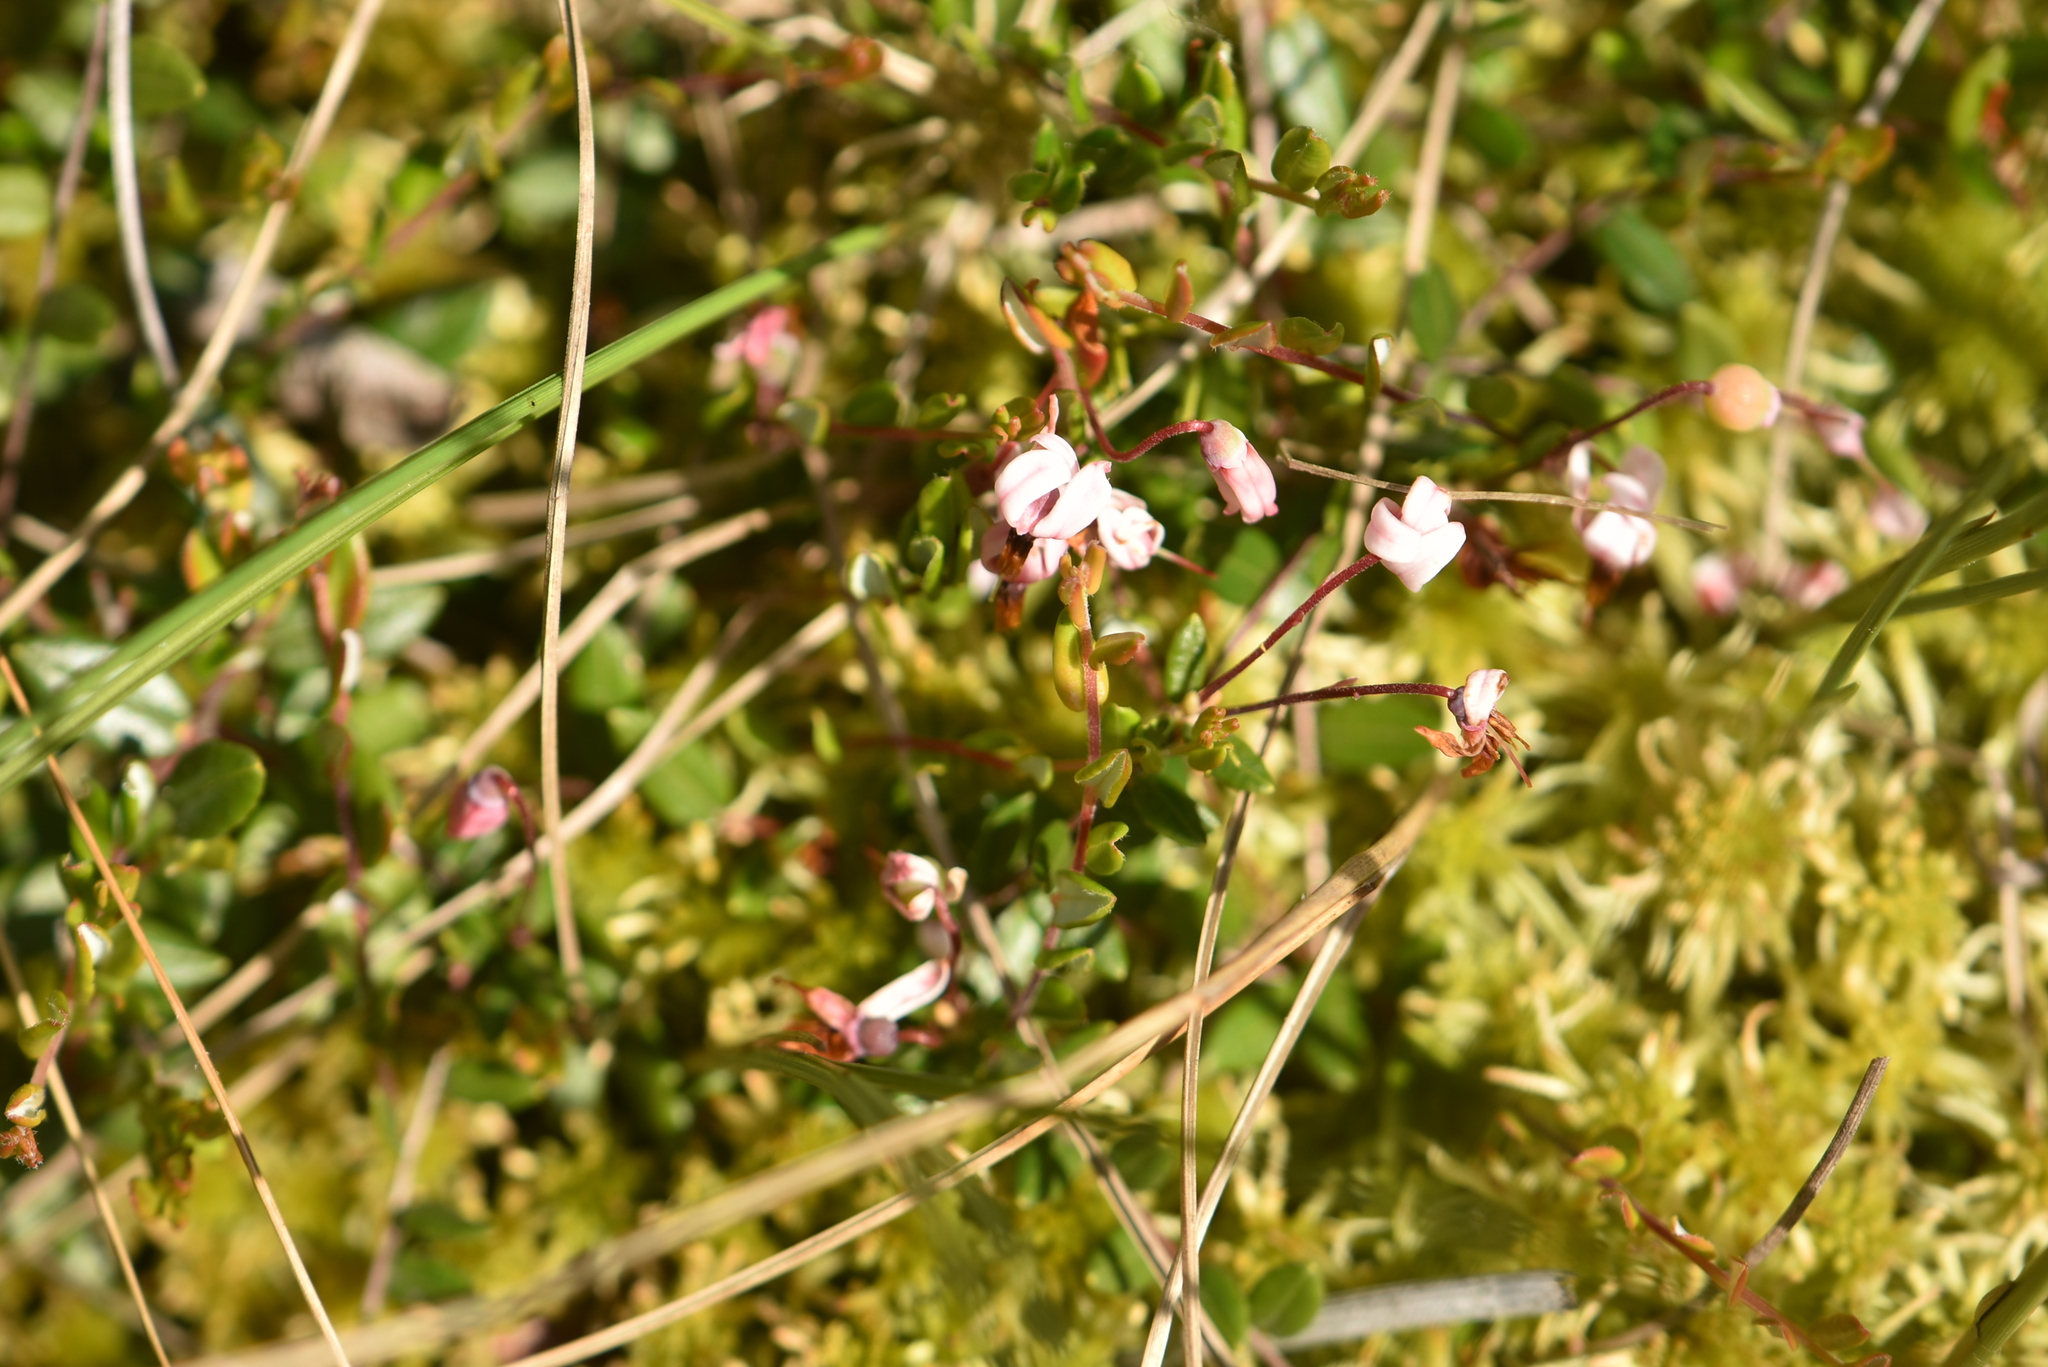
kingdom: Plantae
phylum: Tracheophyta
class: Magnoliopsida
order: Ericales
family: Ericaceae
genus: Vaccinium
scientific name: Vaccinium oxycoccos
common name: Cranberry
